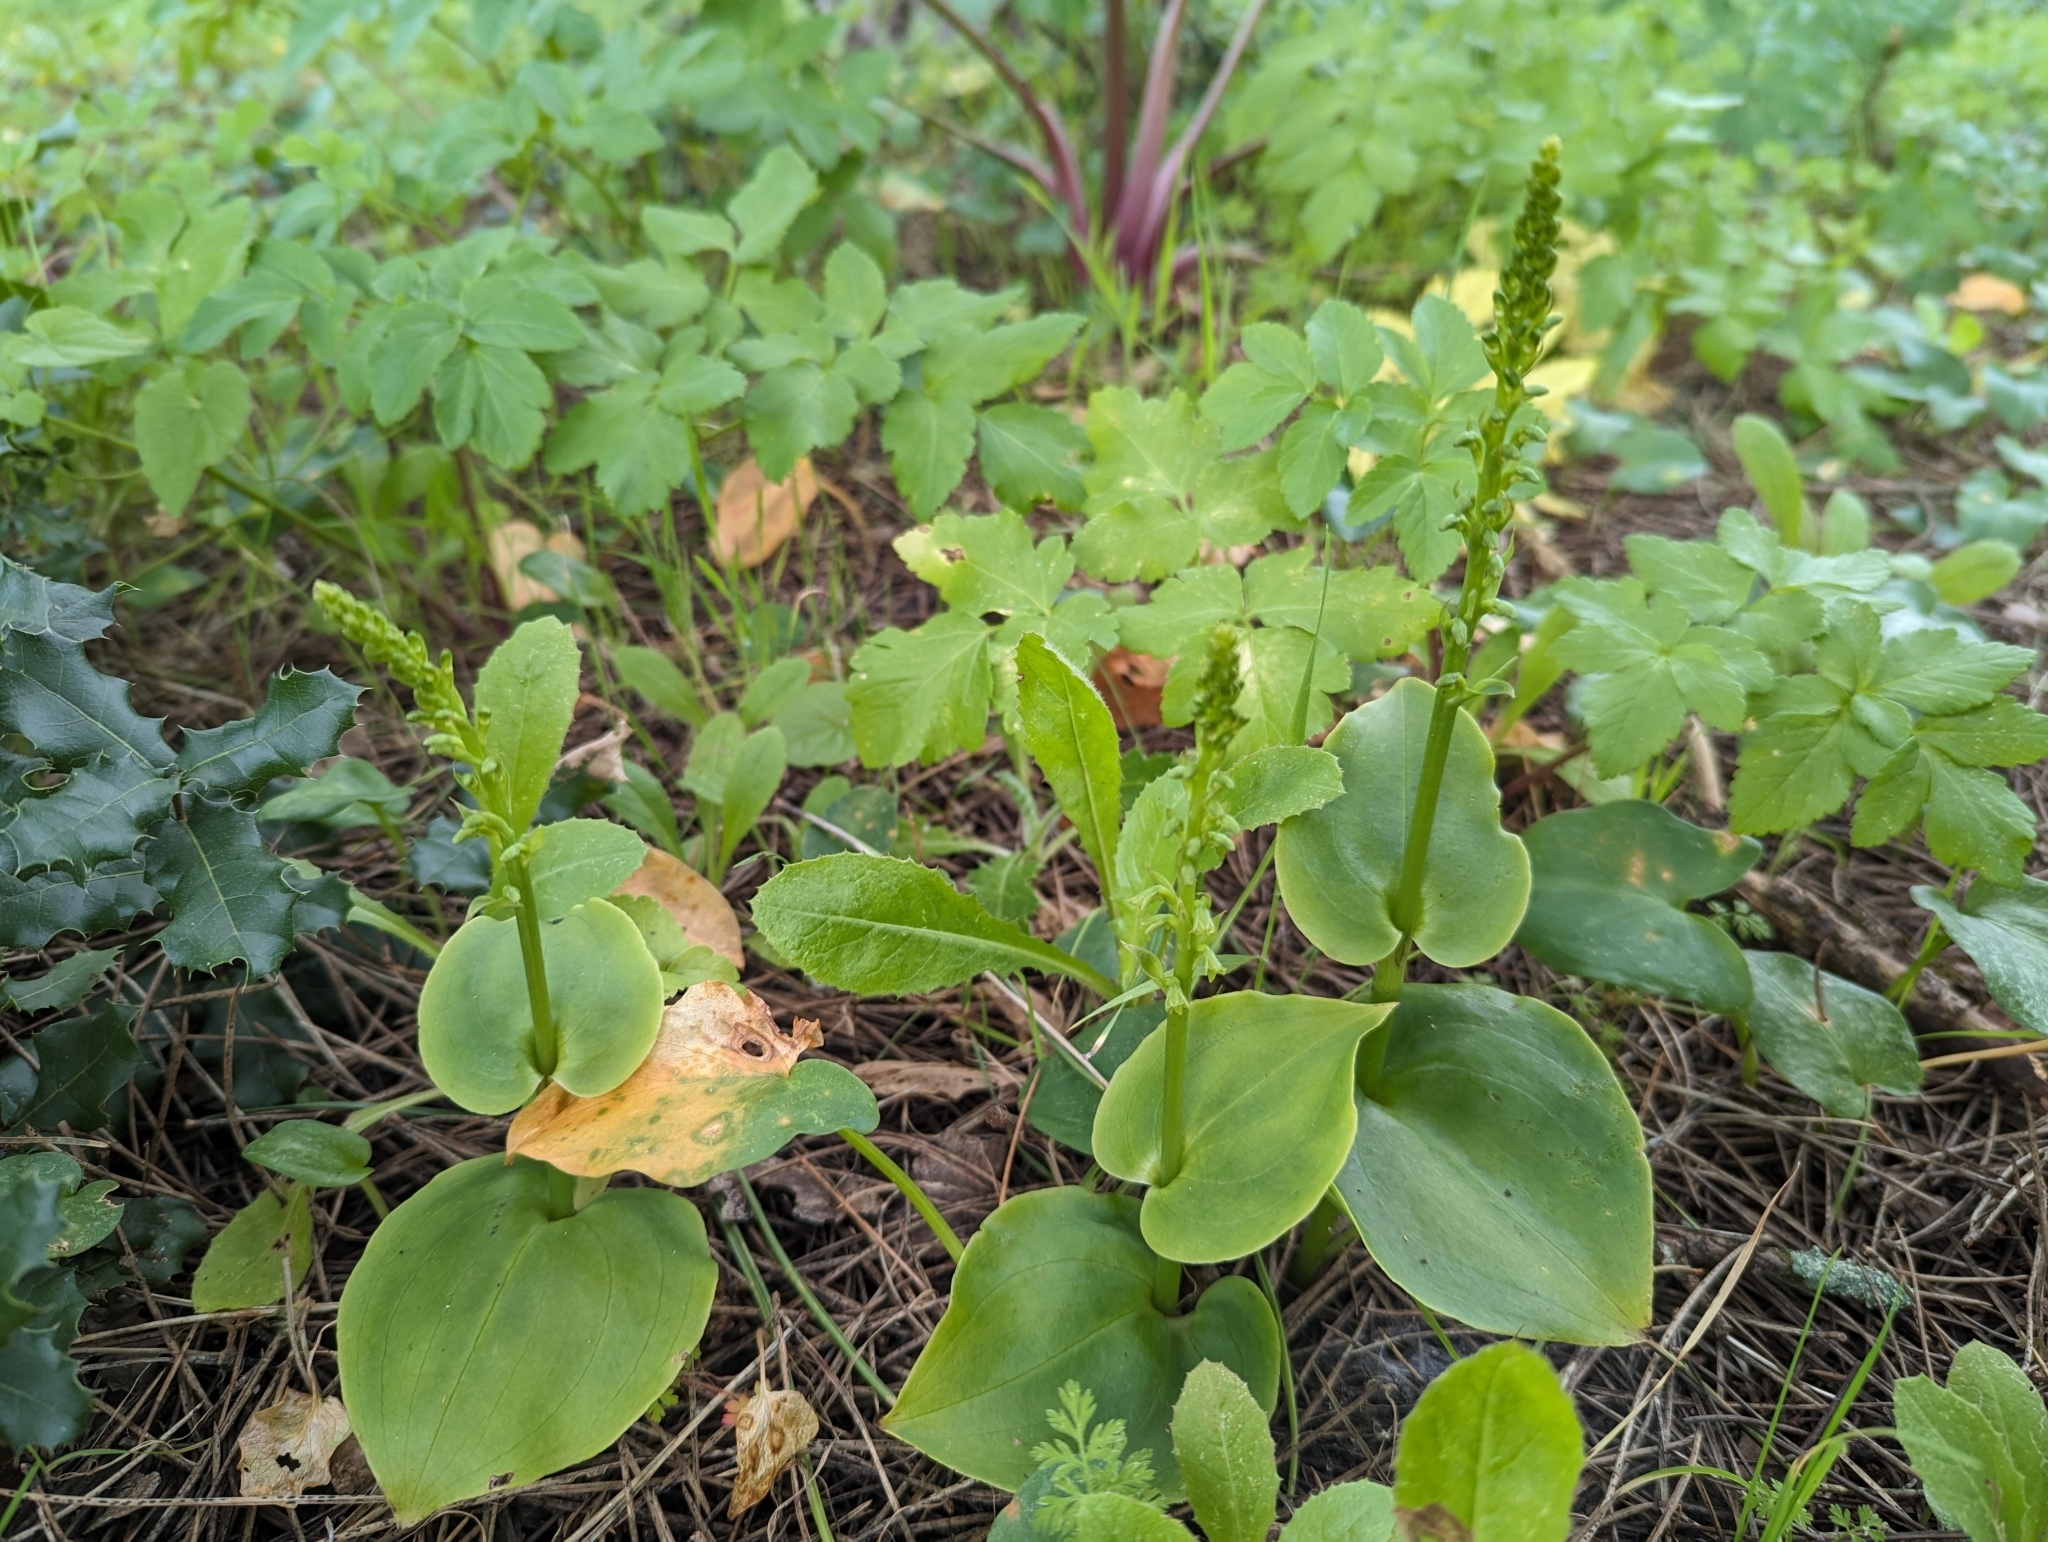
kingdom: Plantae
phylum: Tracheophyta
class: Liliopsida
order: Asparagales
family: Orchidaceae
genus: Gennaria
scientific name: Gennaria diphylla
